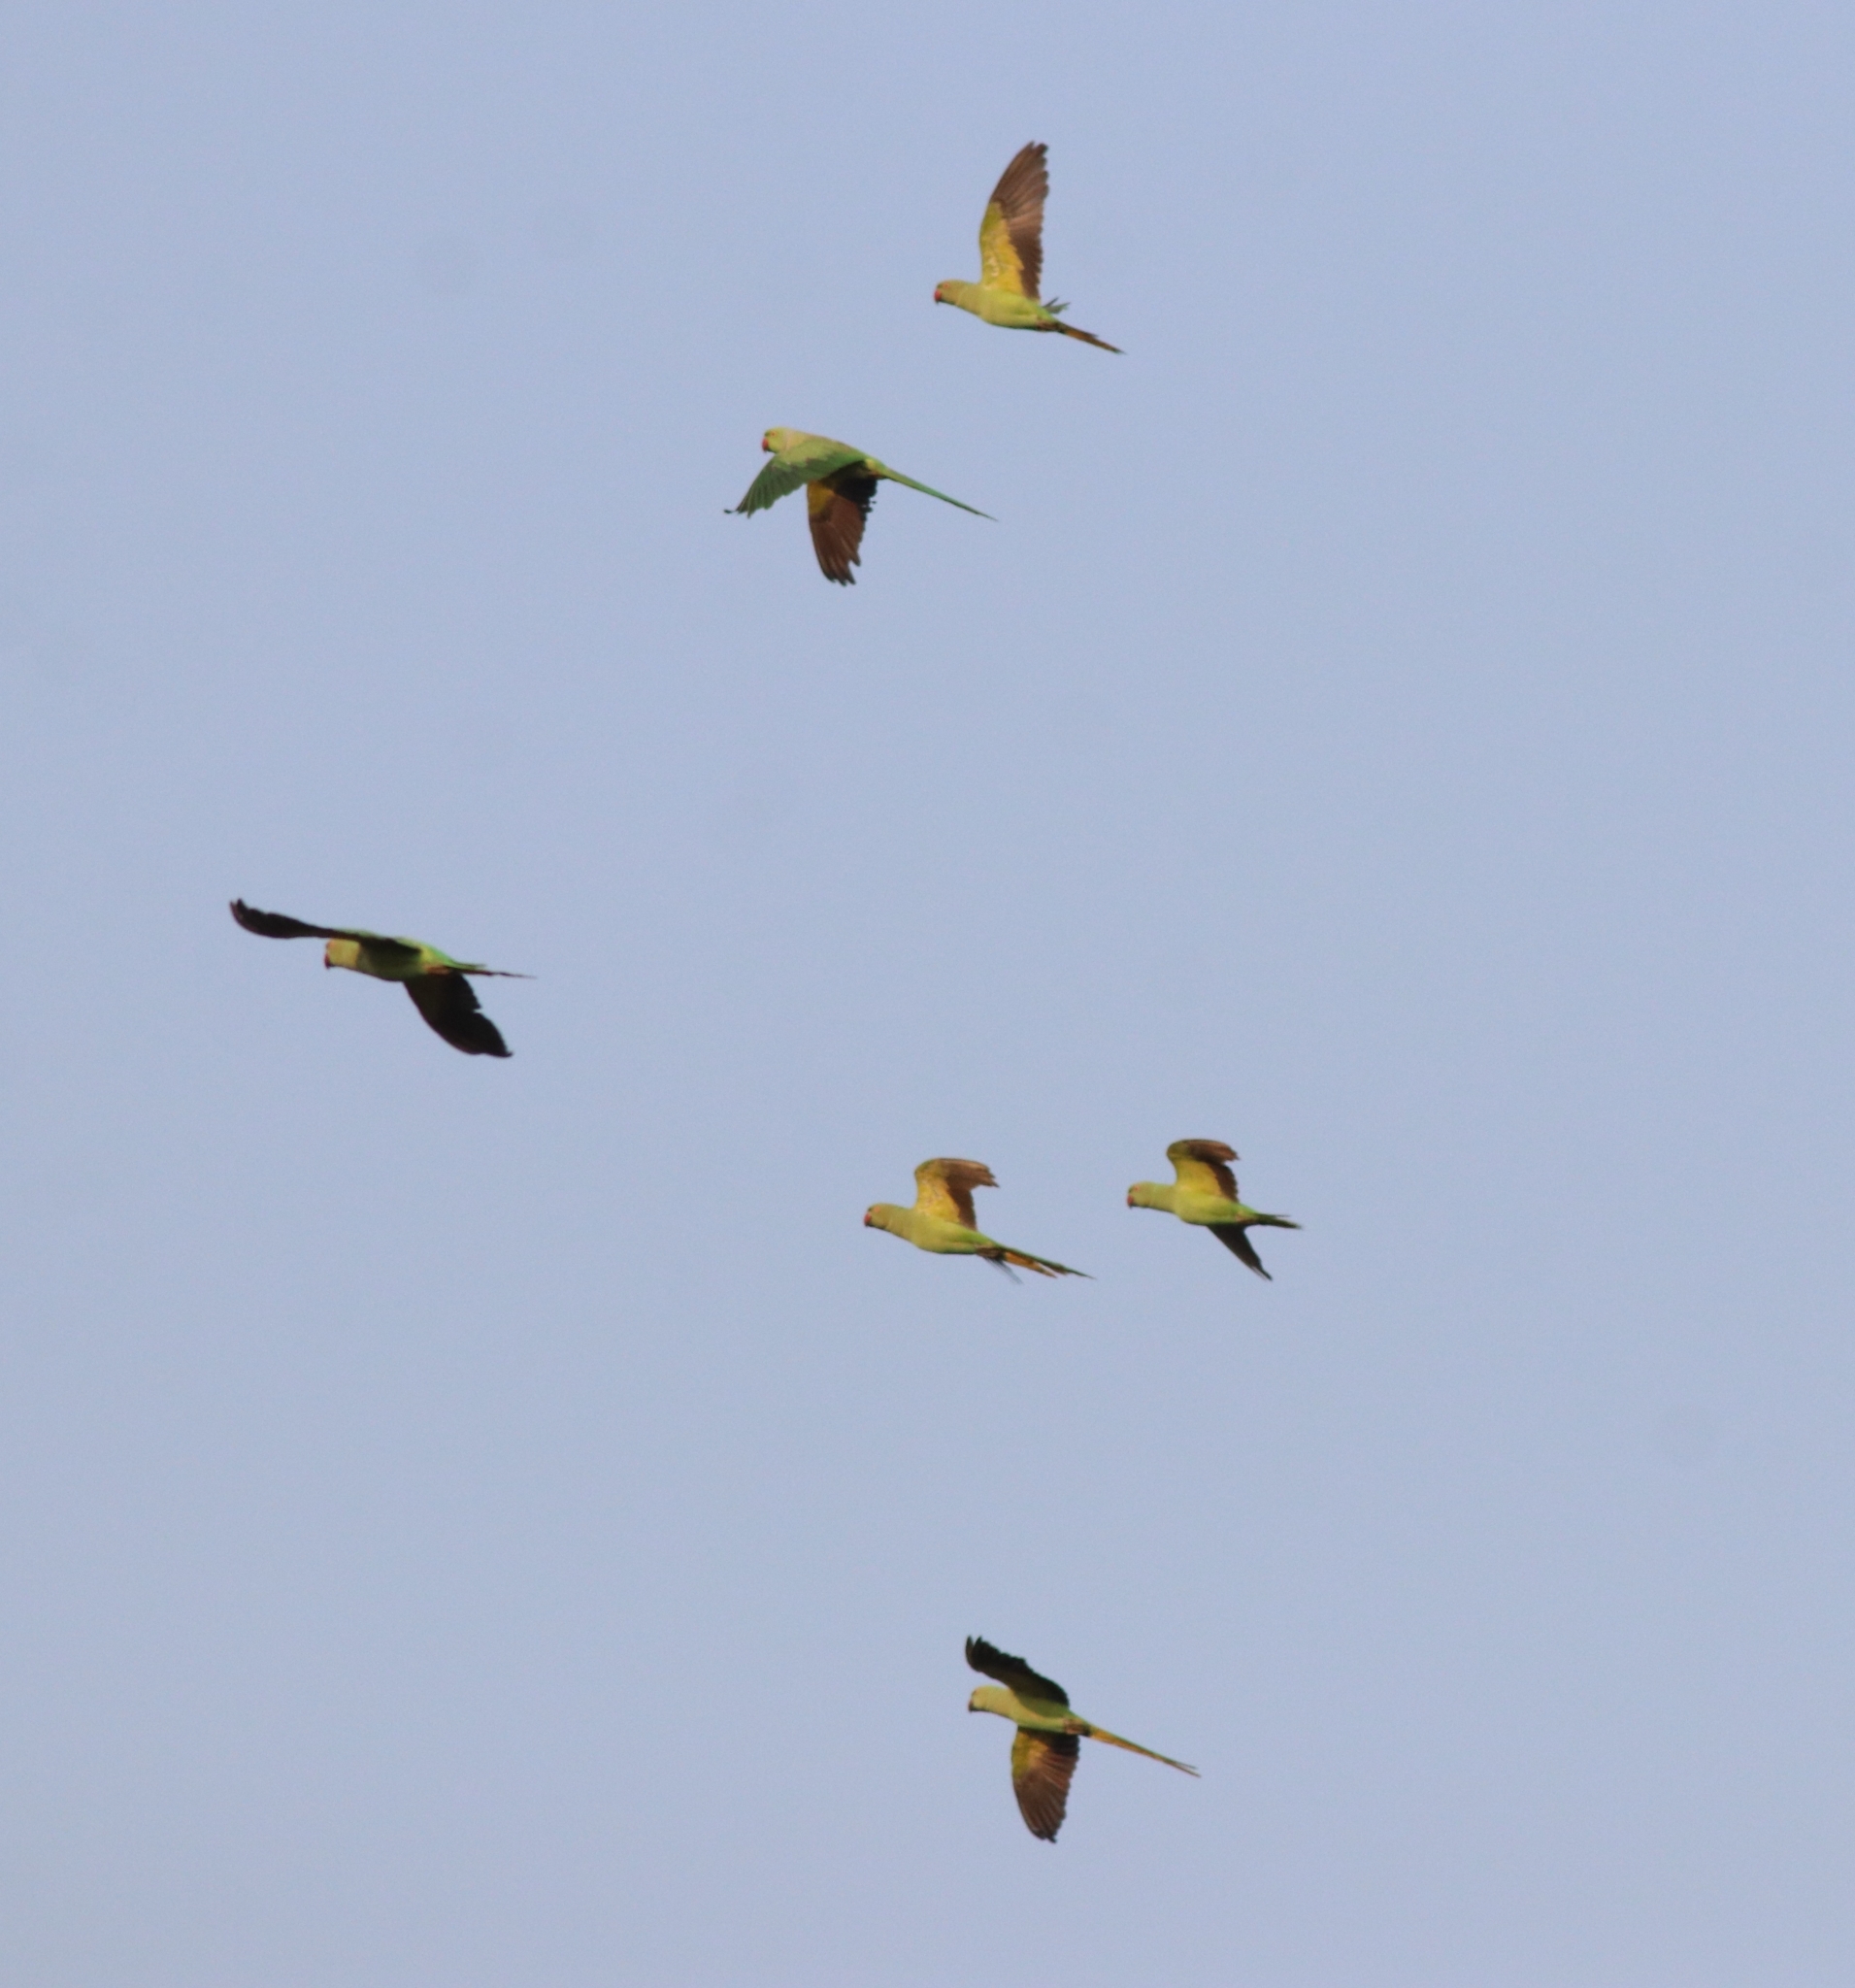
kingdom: Animalia
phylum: Chordata
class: Aves
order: Psittaciformes
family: Psittacidae
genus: Psittacula
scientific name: Psittacula krameri
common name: Rose-ringed parakeet
